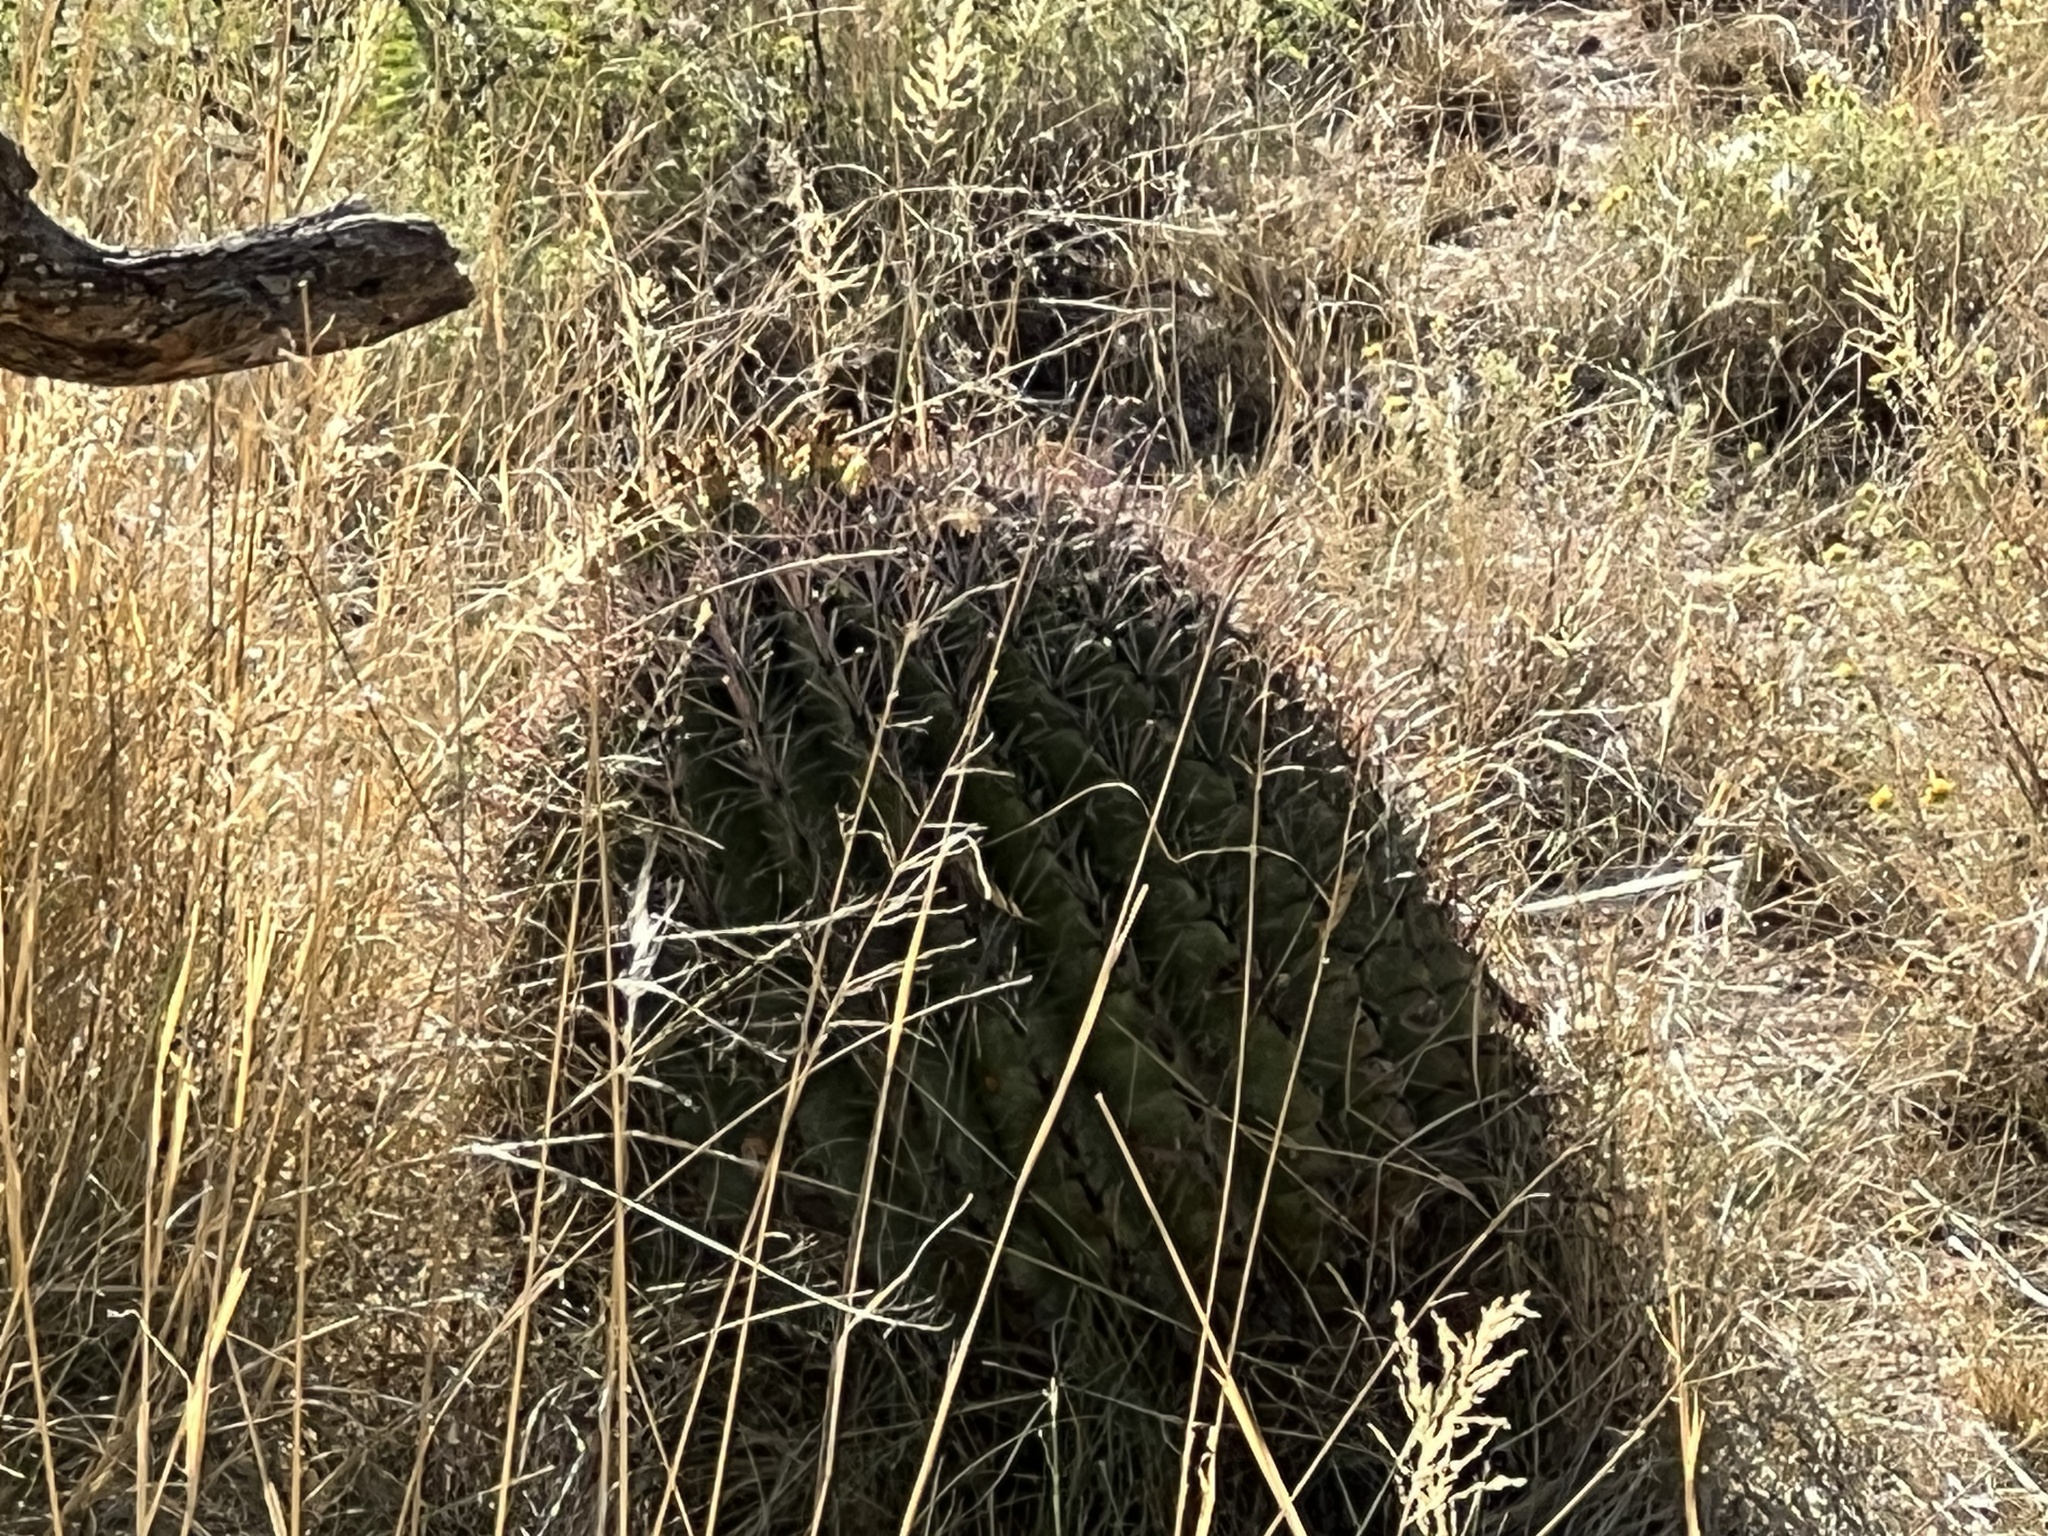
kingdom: Plantae
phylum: Tracheophyta
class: Magnoliopsida
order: Caryophyllales
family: Cactaceae
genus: Ferocactus
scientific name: Ferocactus wislizeni
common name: Candy barrel cactus
